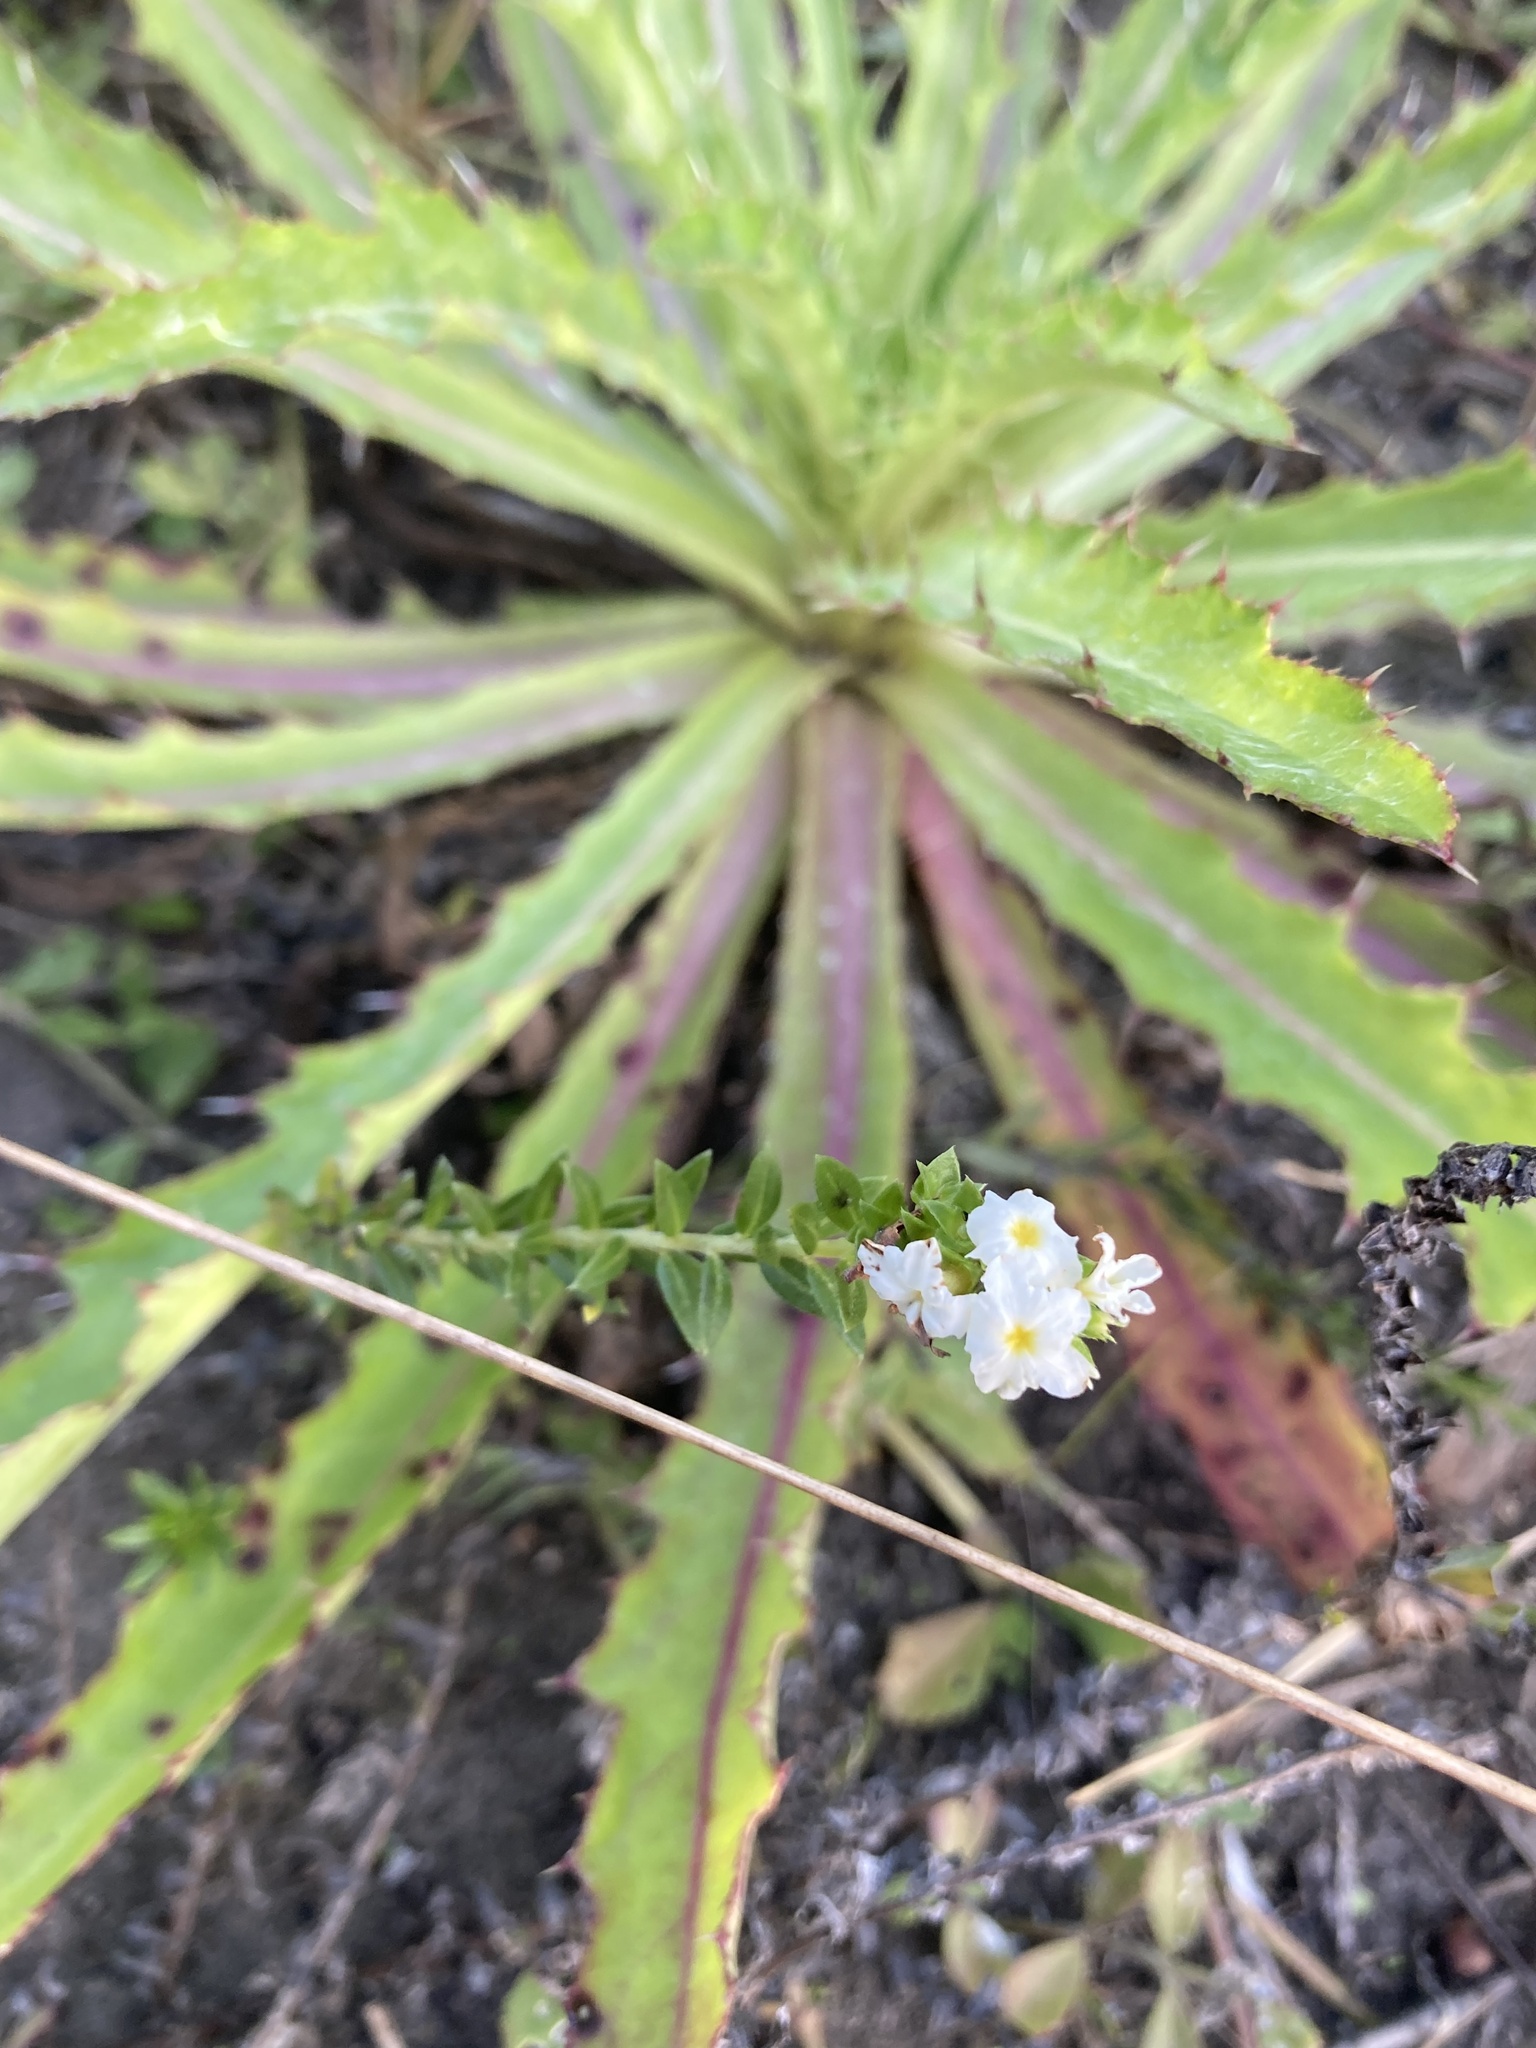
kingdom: Plantae
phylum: Tracheophyta
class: Magnoliopsida
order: Boraginales
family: Heliotropiaceae
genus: Euploca
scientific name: Euploca polyphylla
